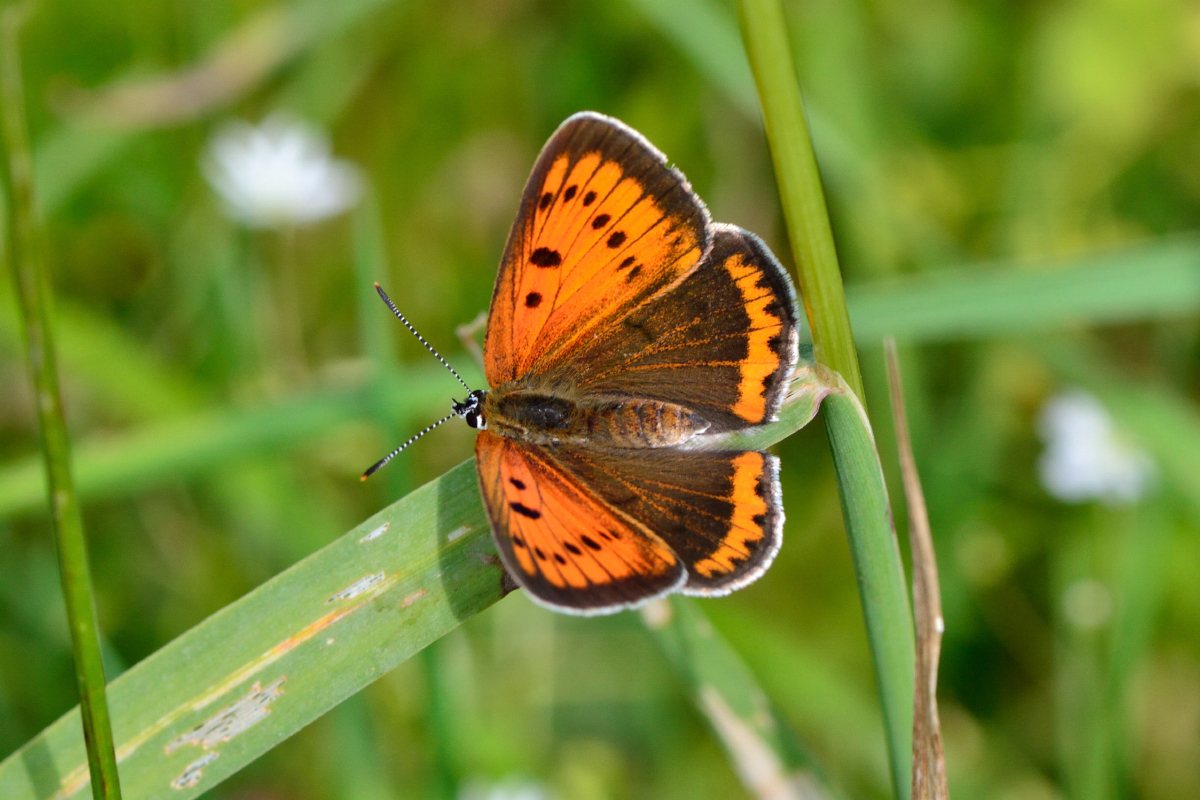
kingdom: Animalia
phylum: Arthropoda
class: Insecta
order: Lepidoptera
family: Lycaenidae
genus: Lycaena
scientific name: Lycaena dispar
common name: Large copper
